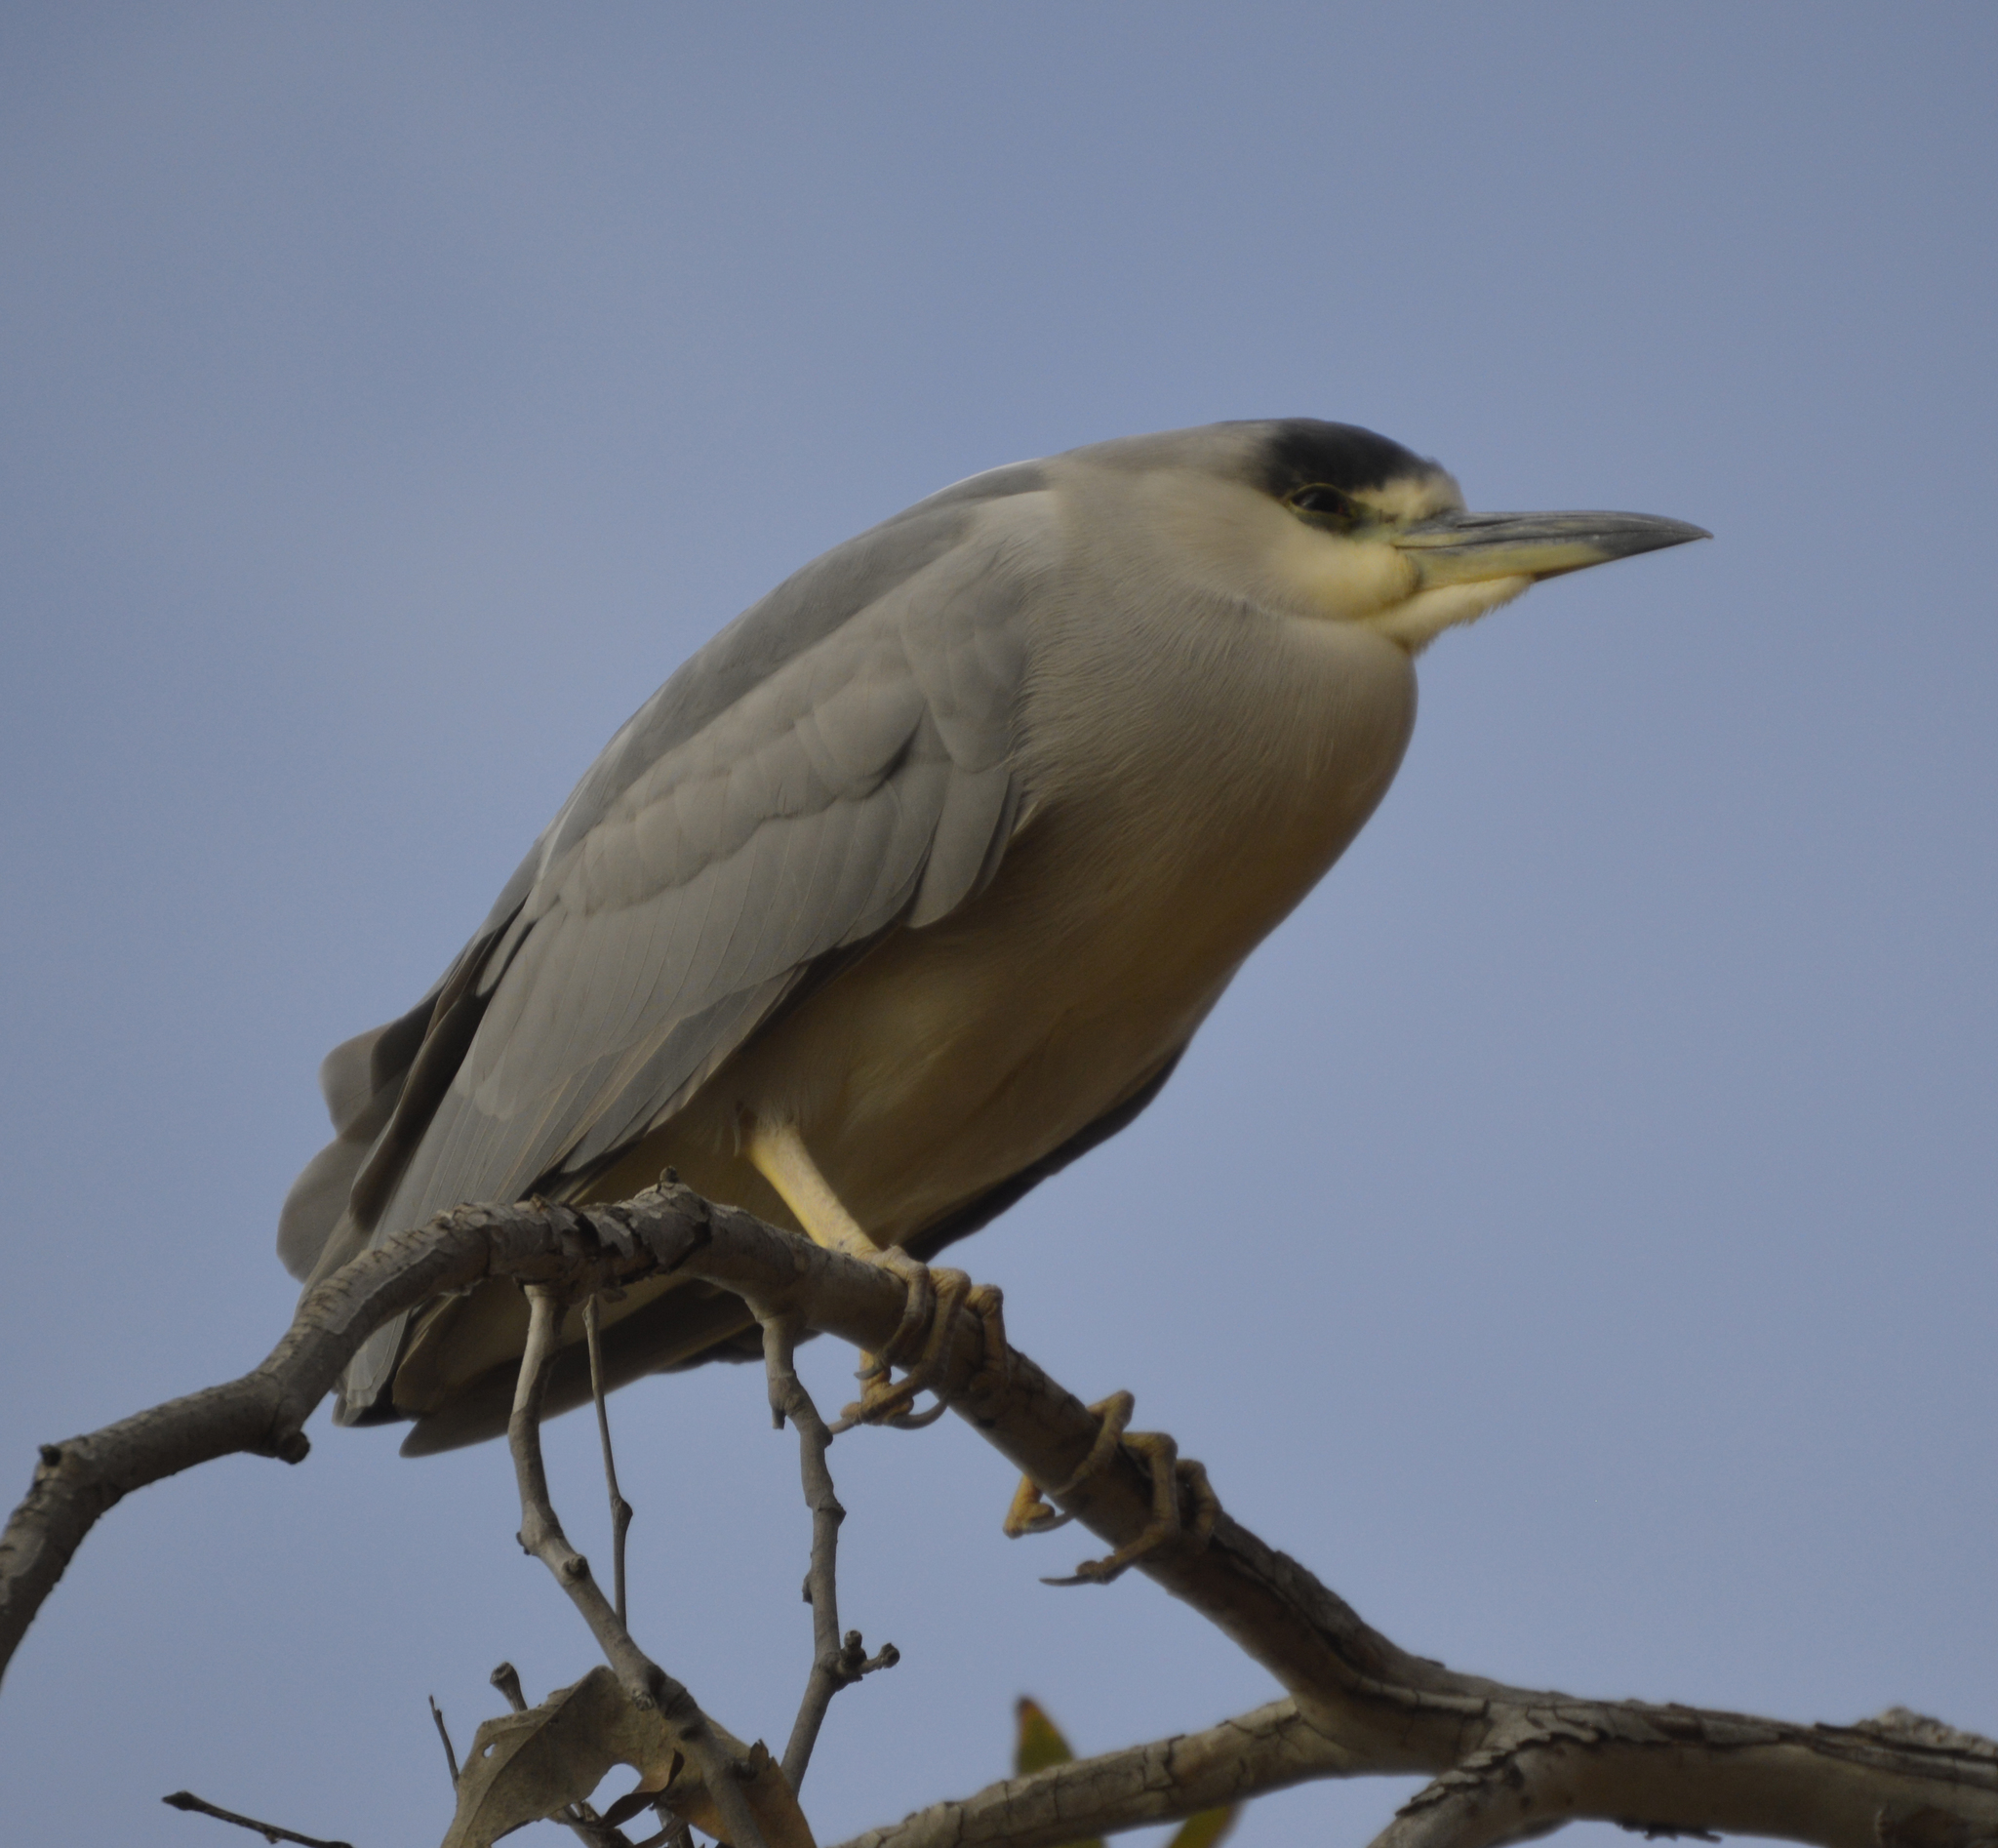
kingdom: Animalia
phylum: Chordata
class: Aves
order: Pelecaniformes
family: Ardeidae
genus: Nycticorax
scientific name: Nycticorax nycticorax
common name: Black-crowned night heron
